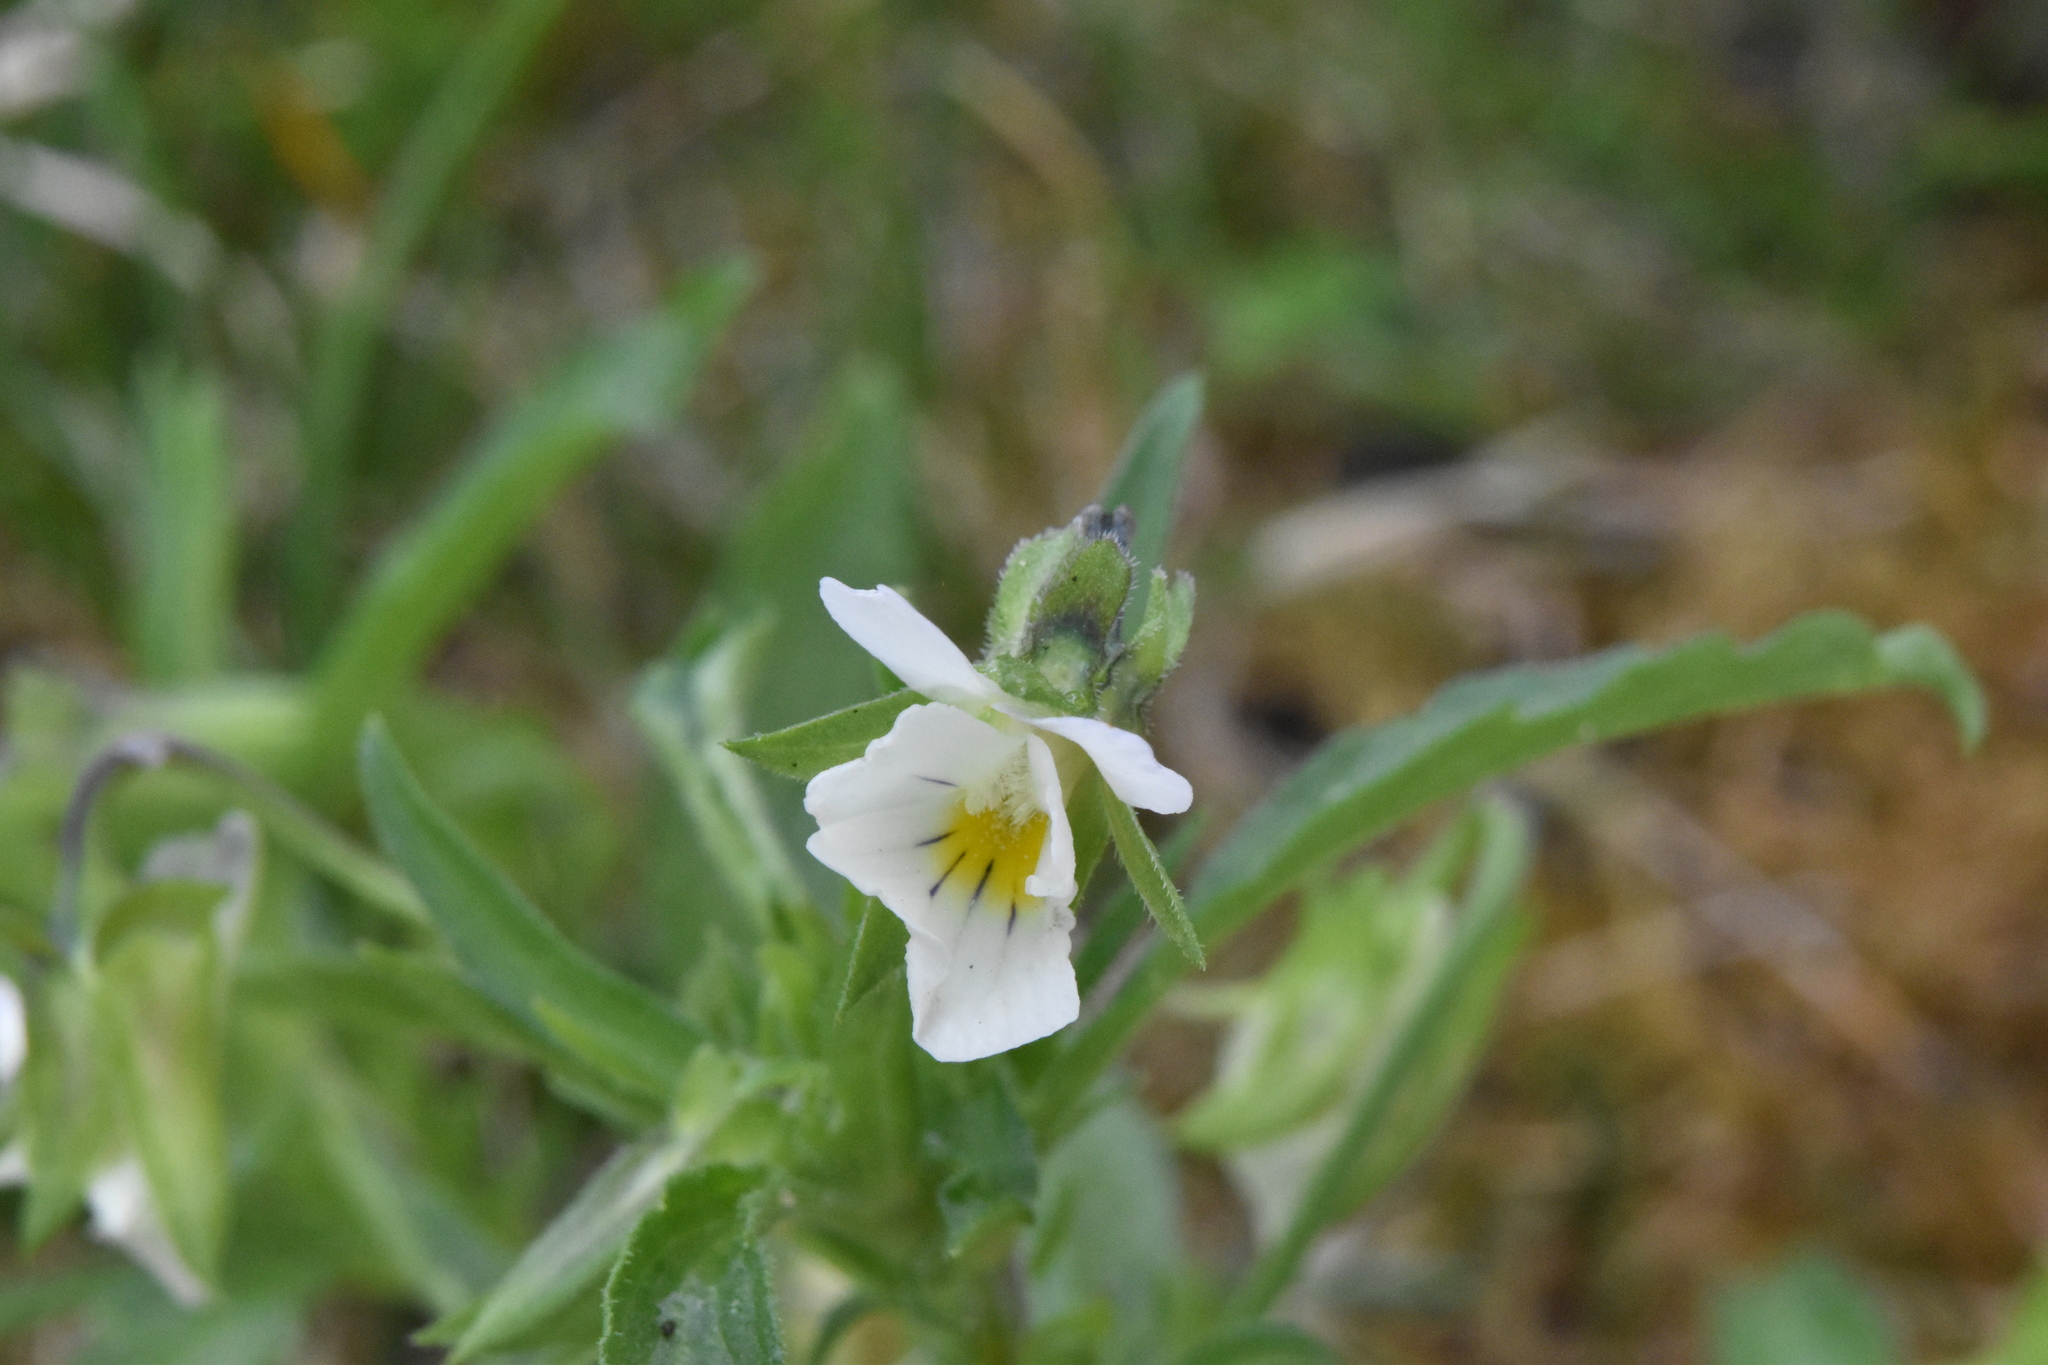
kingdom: Plantae
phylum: Tracheophyta
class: Magnoliopsida
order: Malpighiales
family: Violaceae
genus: Viola
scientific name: Viola arvensis
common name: Field pansy
